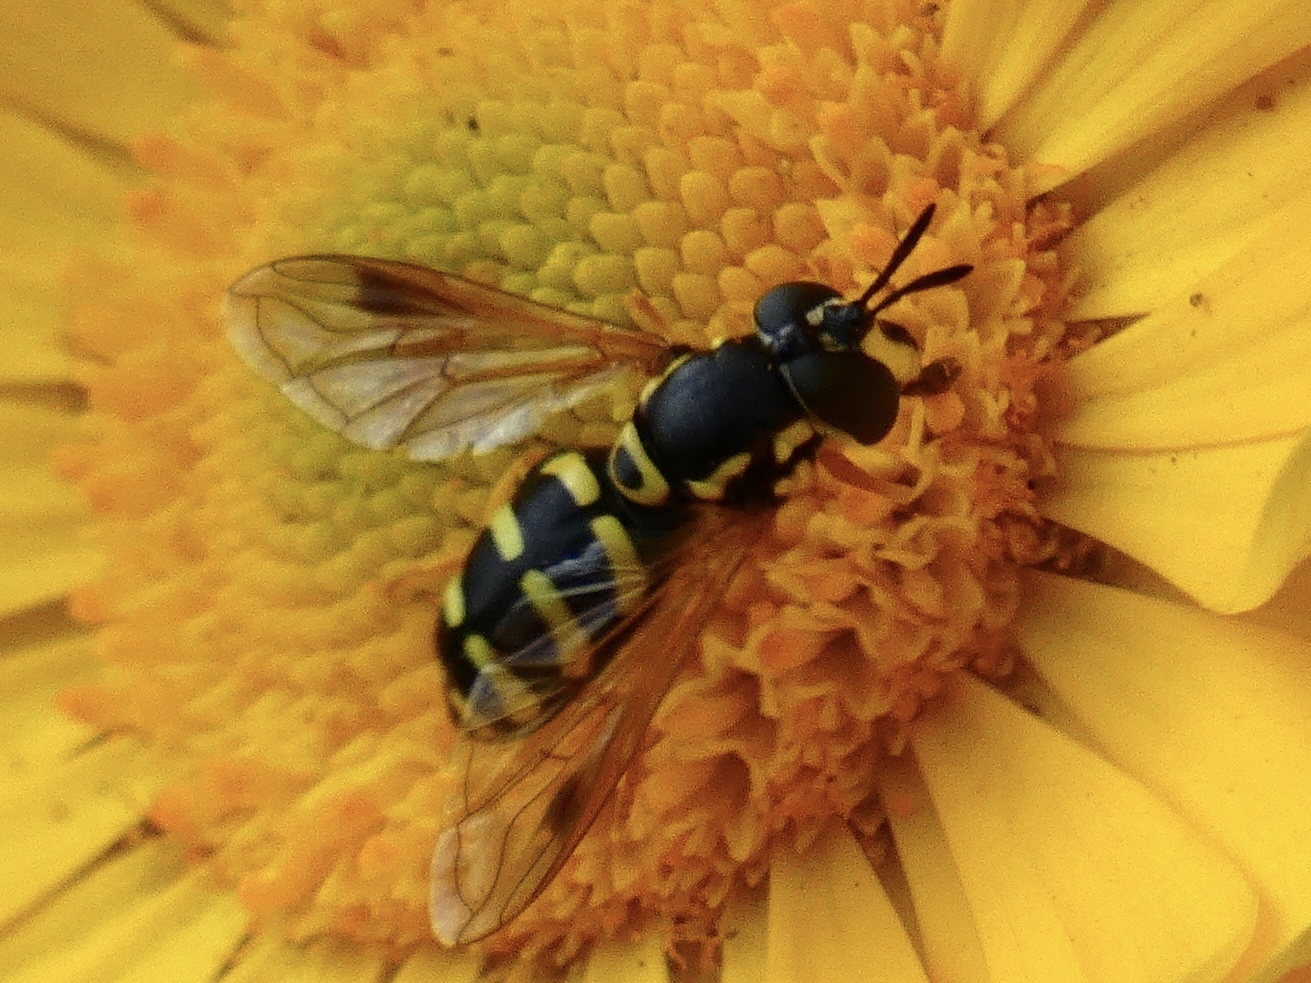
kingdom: Animalia
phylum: Arthropoda
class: Insecta
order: Diptera
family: Syrphidae
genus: Chrysotoxum
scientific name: Chrysotoxum festivum
